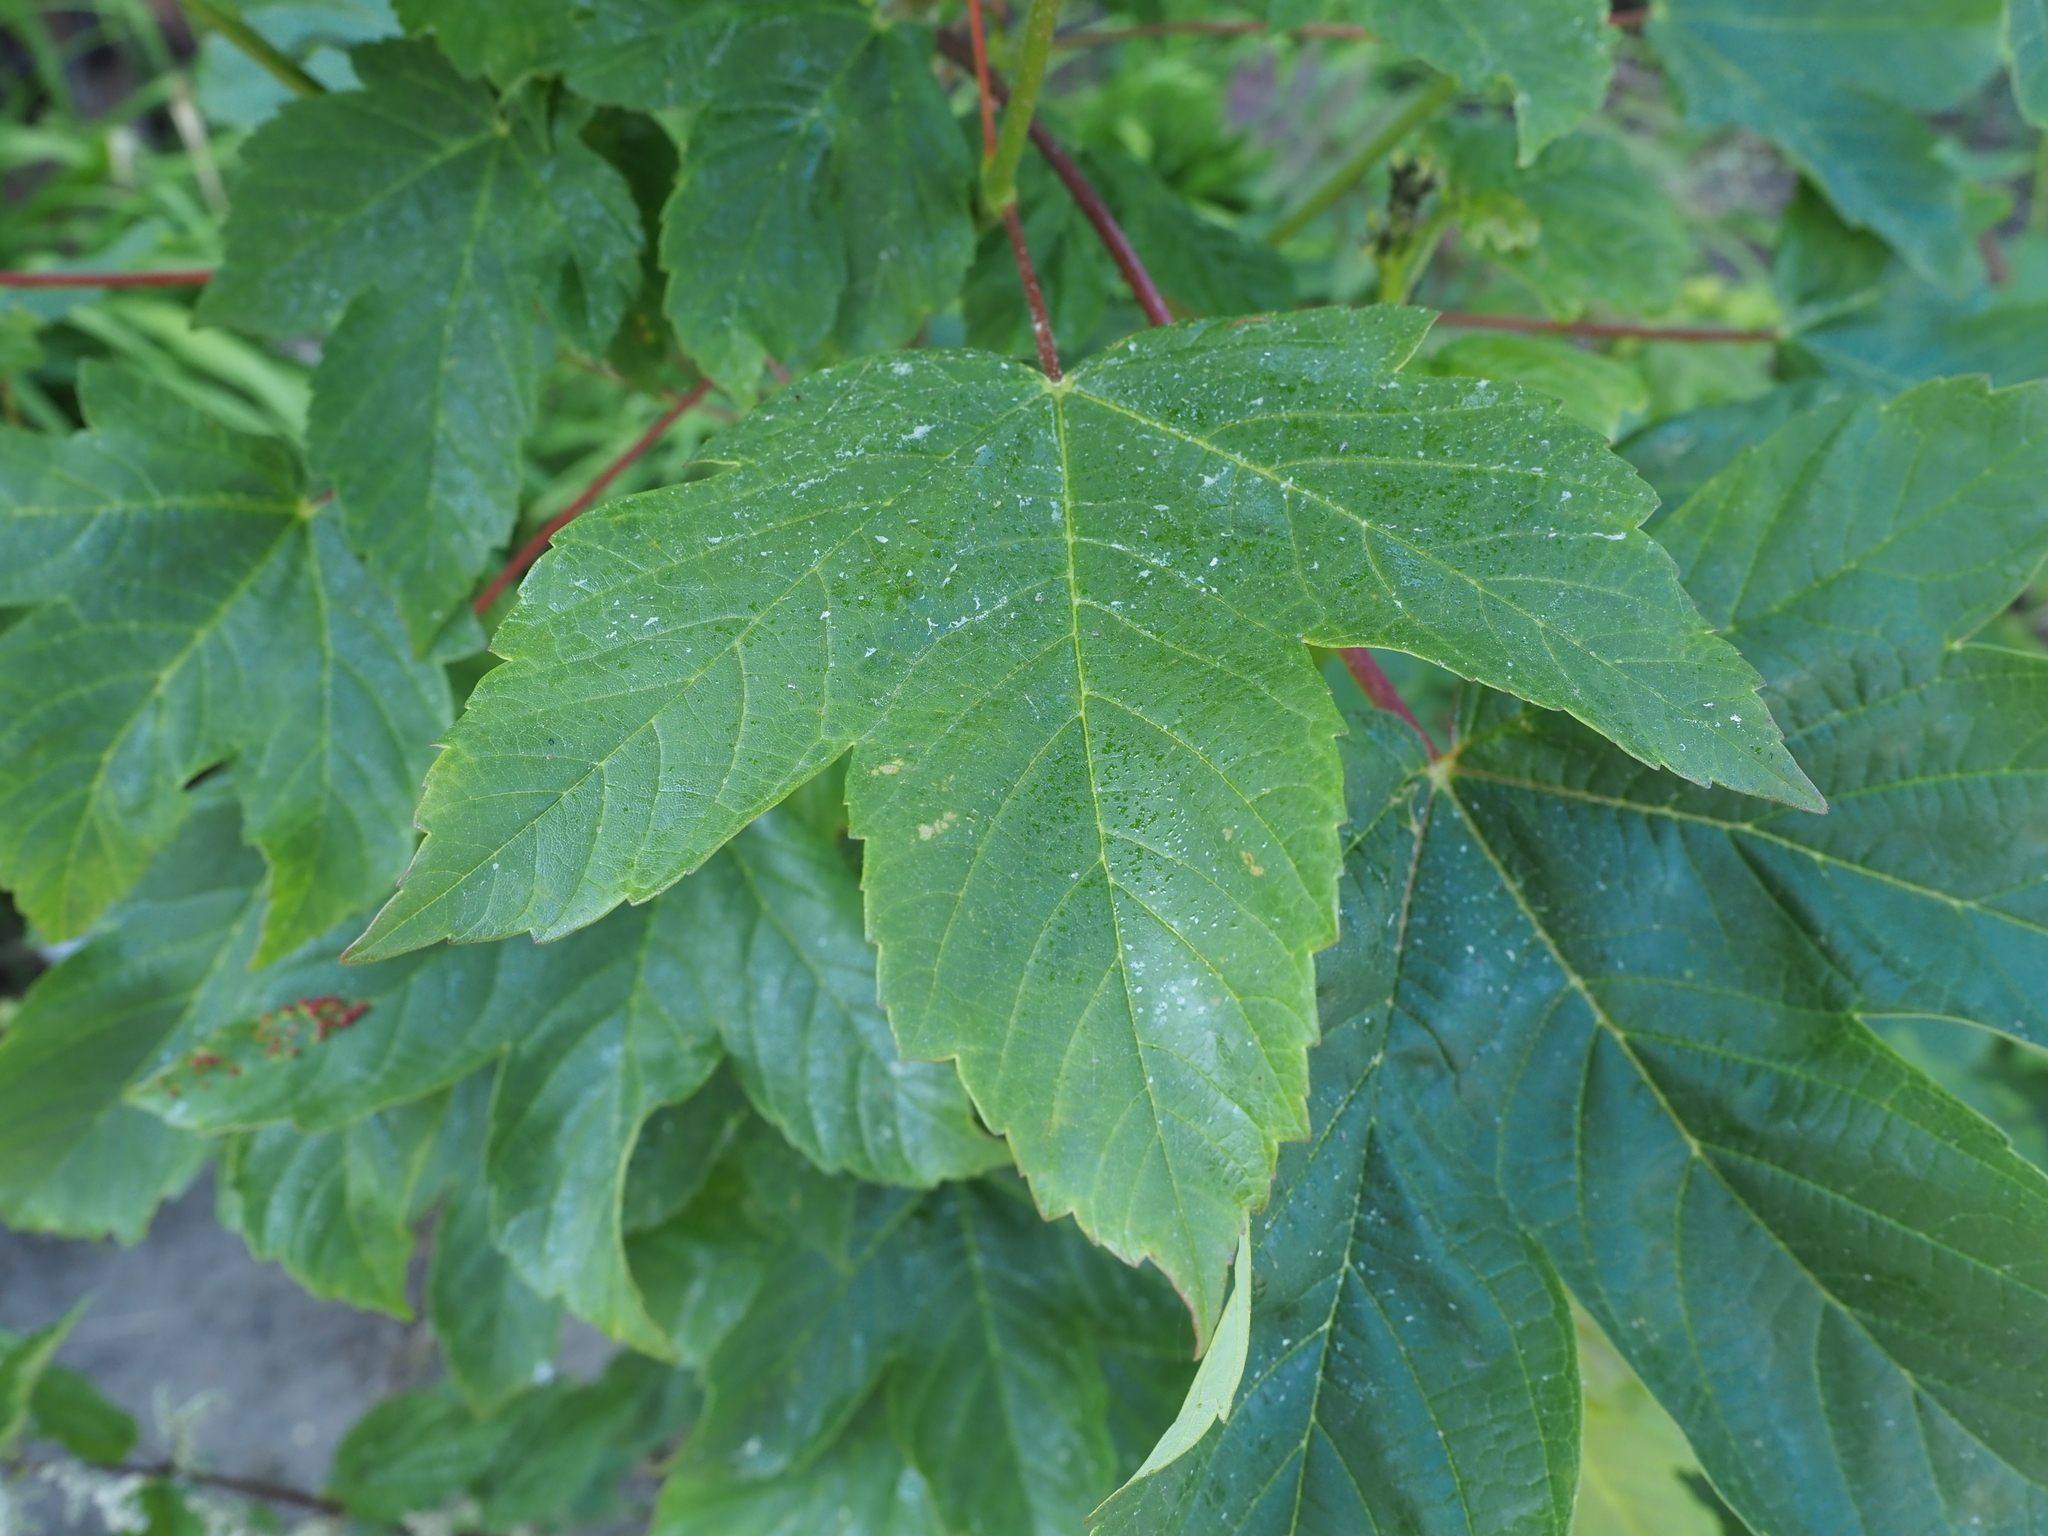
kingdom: Plantae
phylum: Tracheophyta
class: Magnoliopsida
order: Sapindales
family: Sapindaceae
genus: Acer
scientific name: Acer pseudoplatanus
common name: Sycamore
